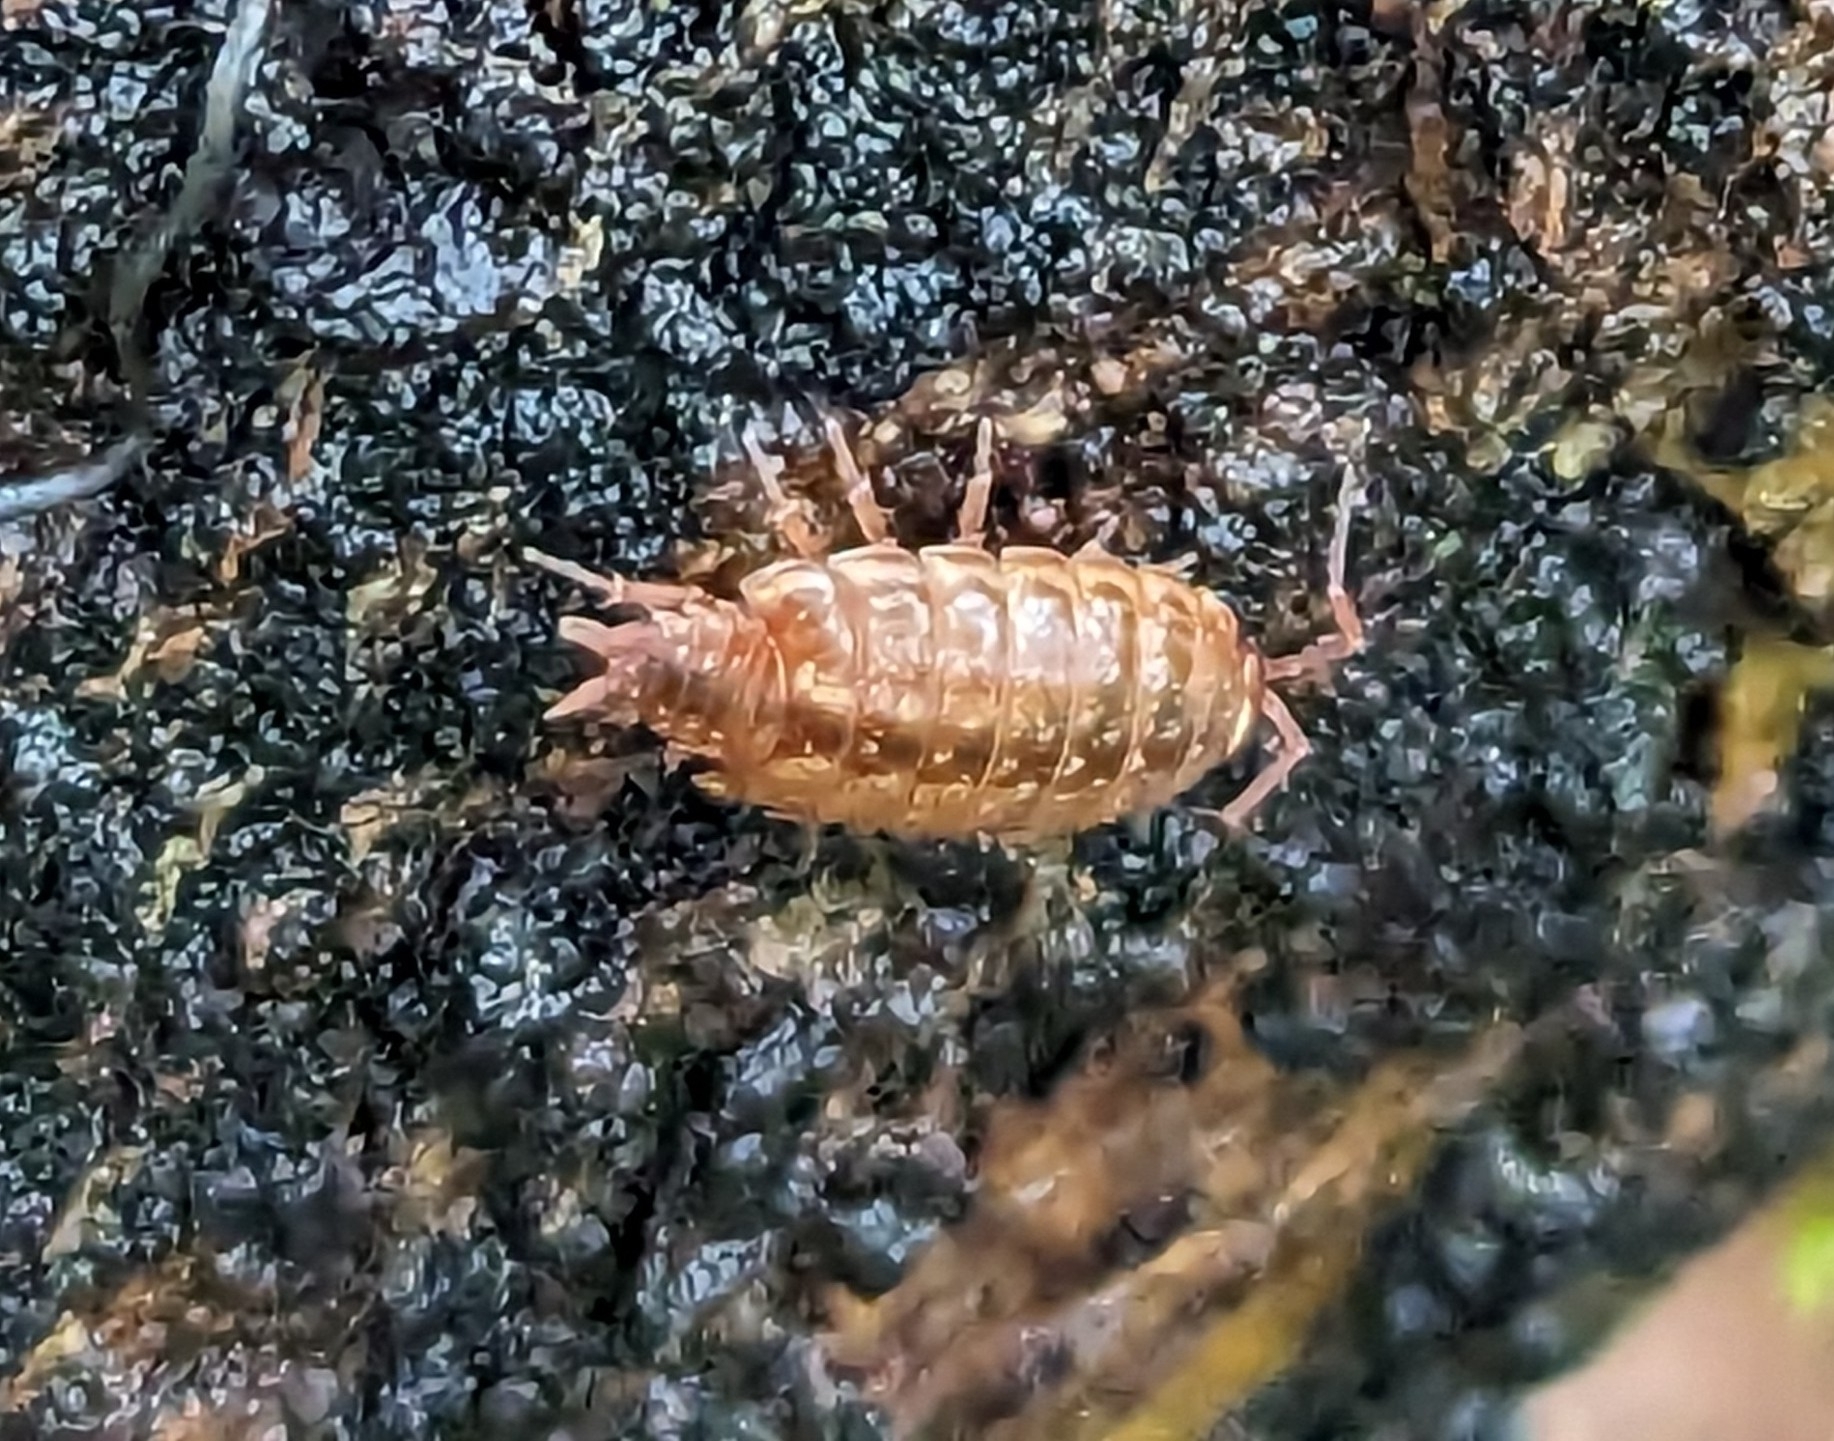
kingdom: Animalia
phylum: Arthropoda
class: Malacostraca
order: Isopoda
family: Philosciidae
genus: Philoscia
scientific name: Philoscia muscorum
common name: Common striped woodlouse
